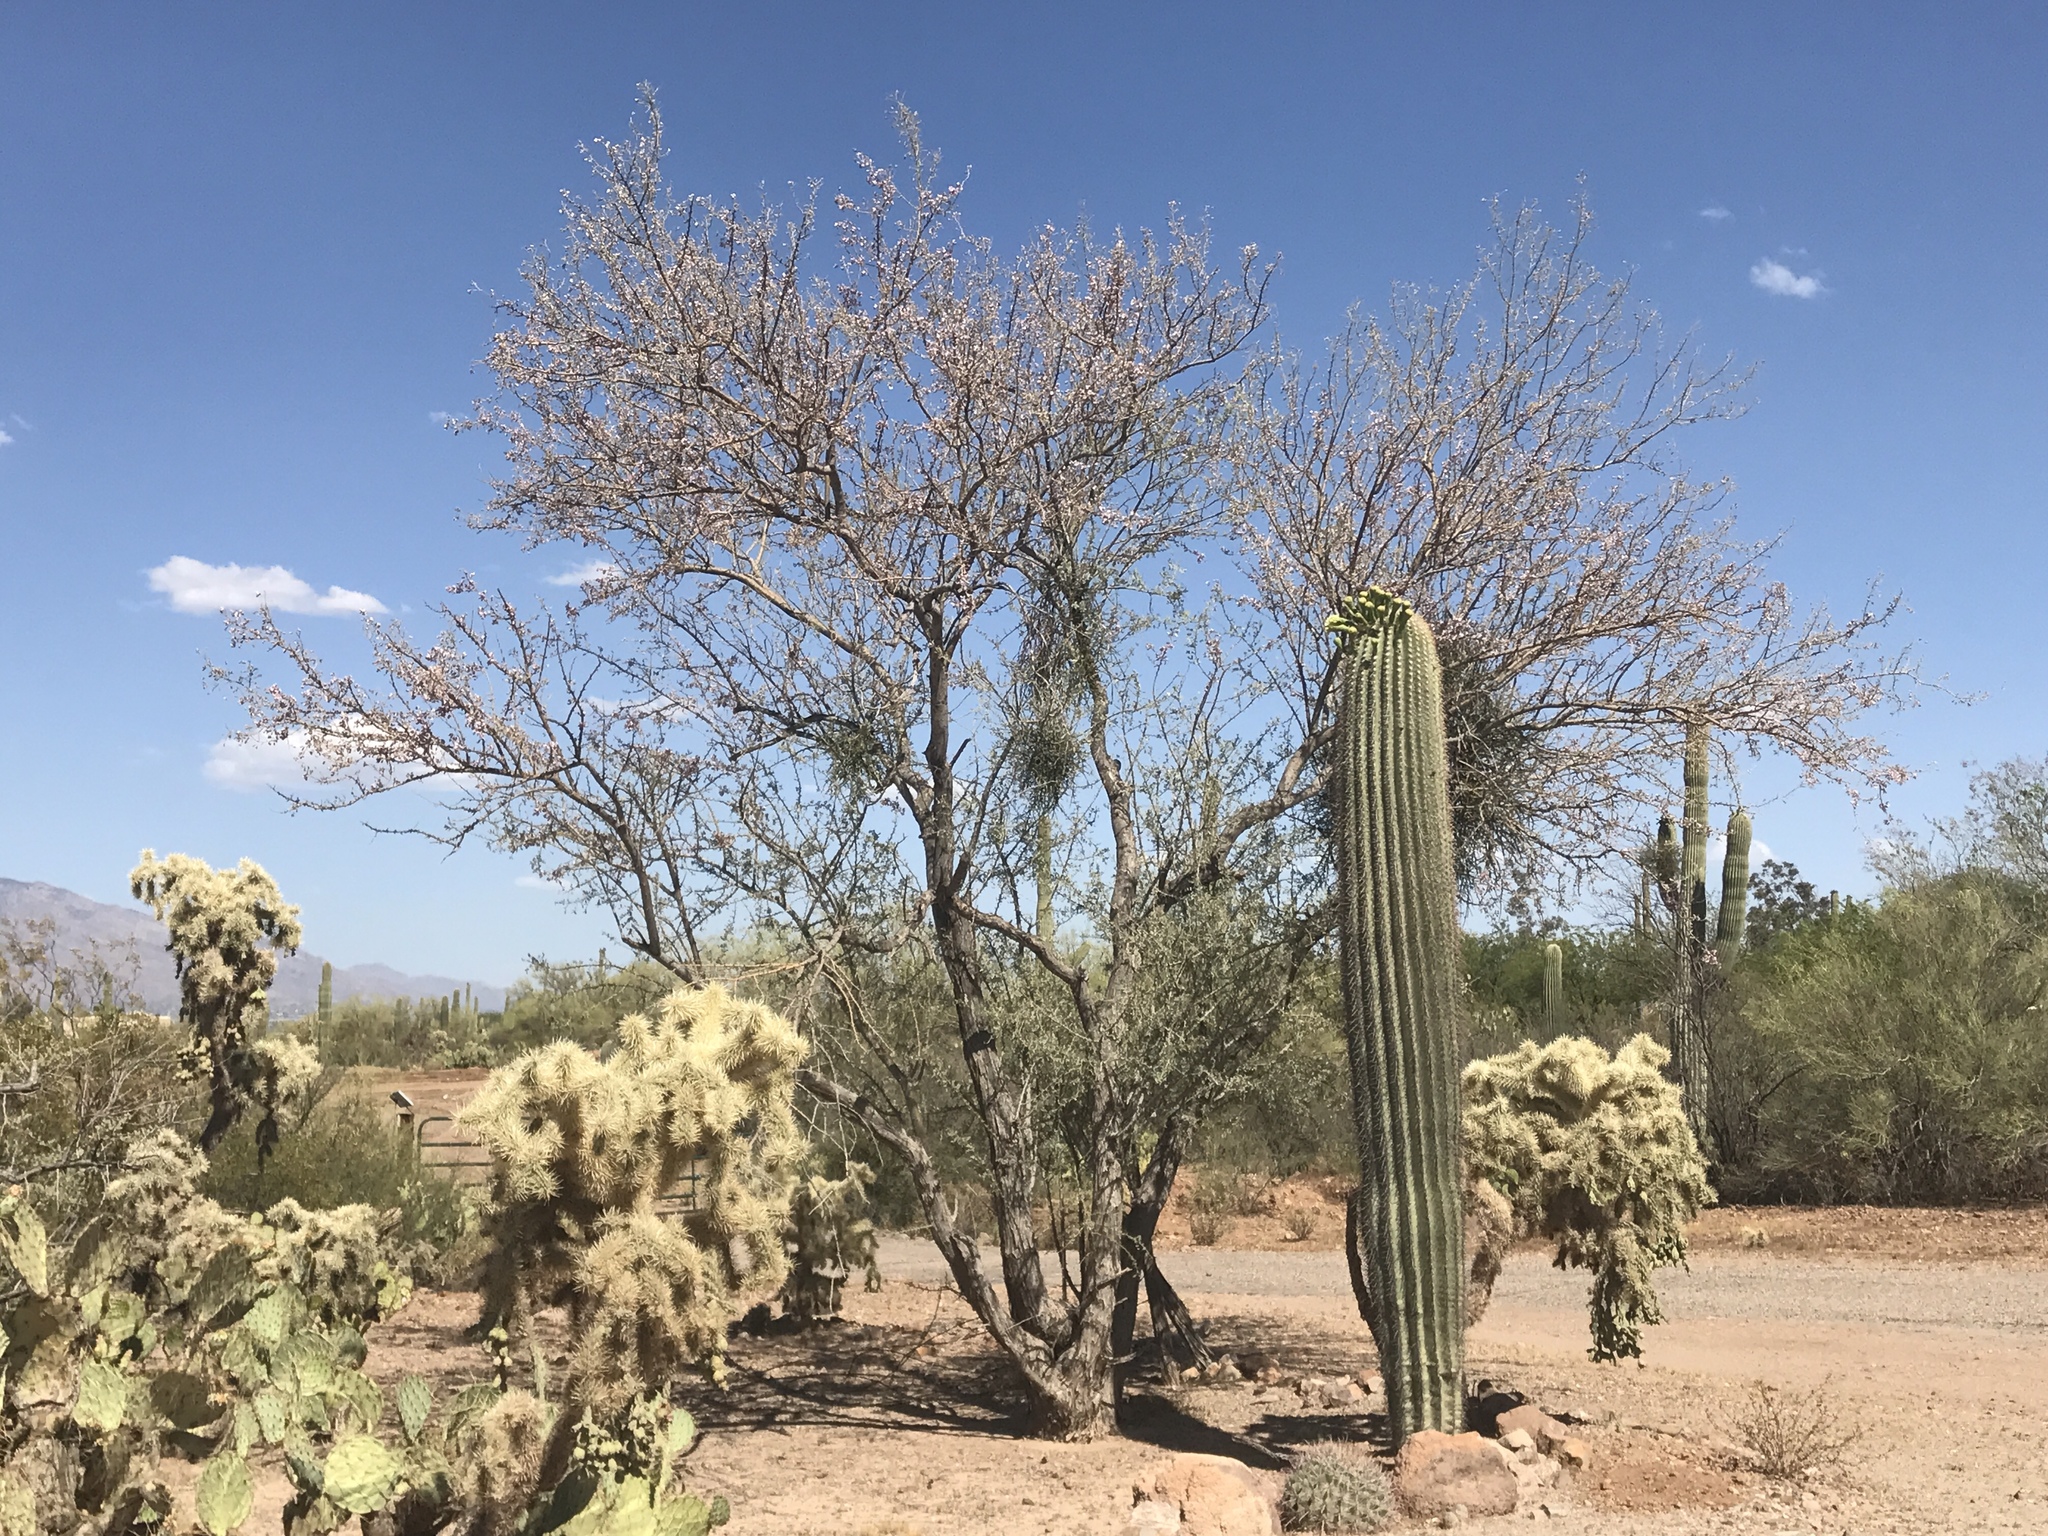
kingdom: Plantae
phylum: Tracheophyta
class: Magnoliopsida
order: Fabales
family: Fabaceae
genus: Olneya
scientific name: Olneya tesota
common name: Desert ironwood
